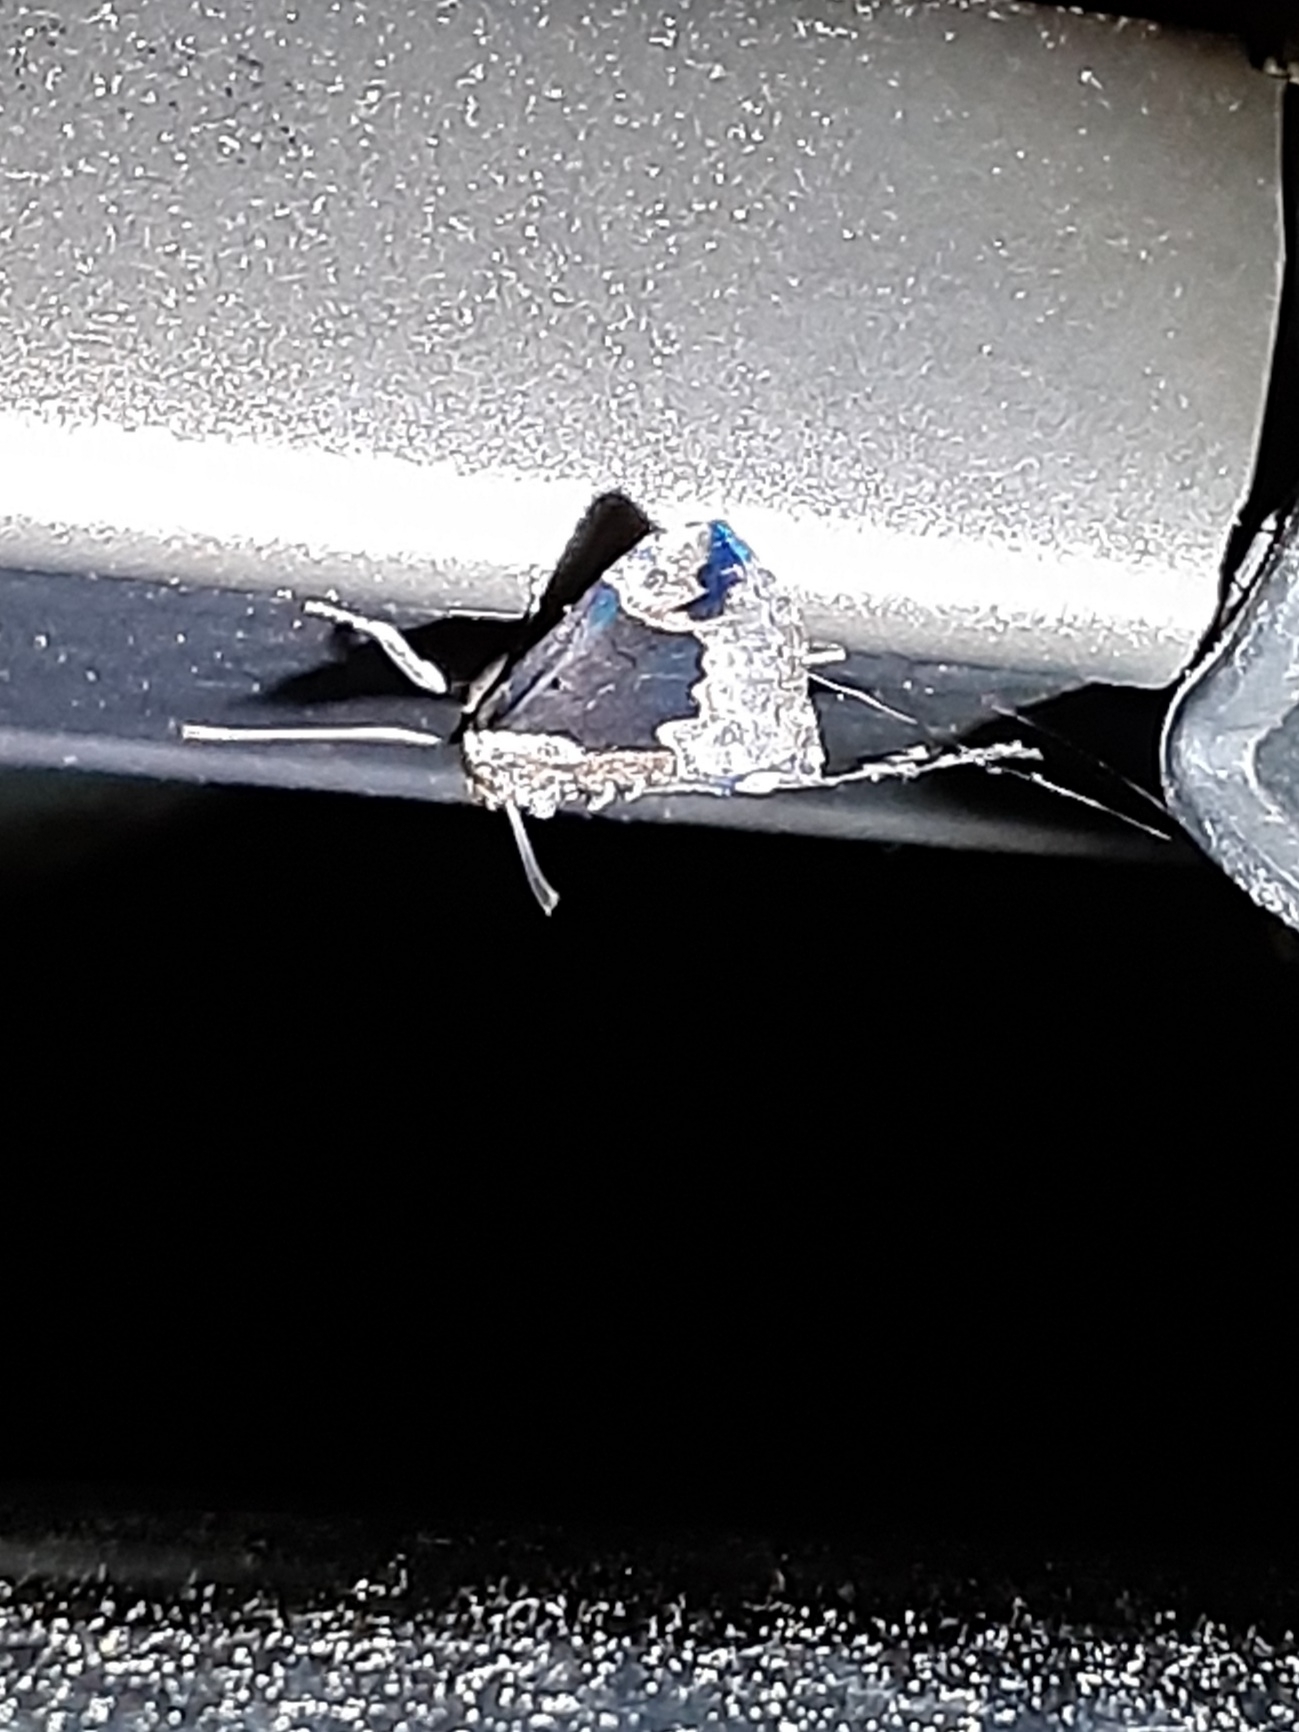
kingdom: Animalia
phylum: Arthropoda
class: Insecta
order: Lepidoptera
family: Erebidae
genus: Hypena
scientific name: Hypena baltimoralis
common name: Baltimore snout
